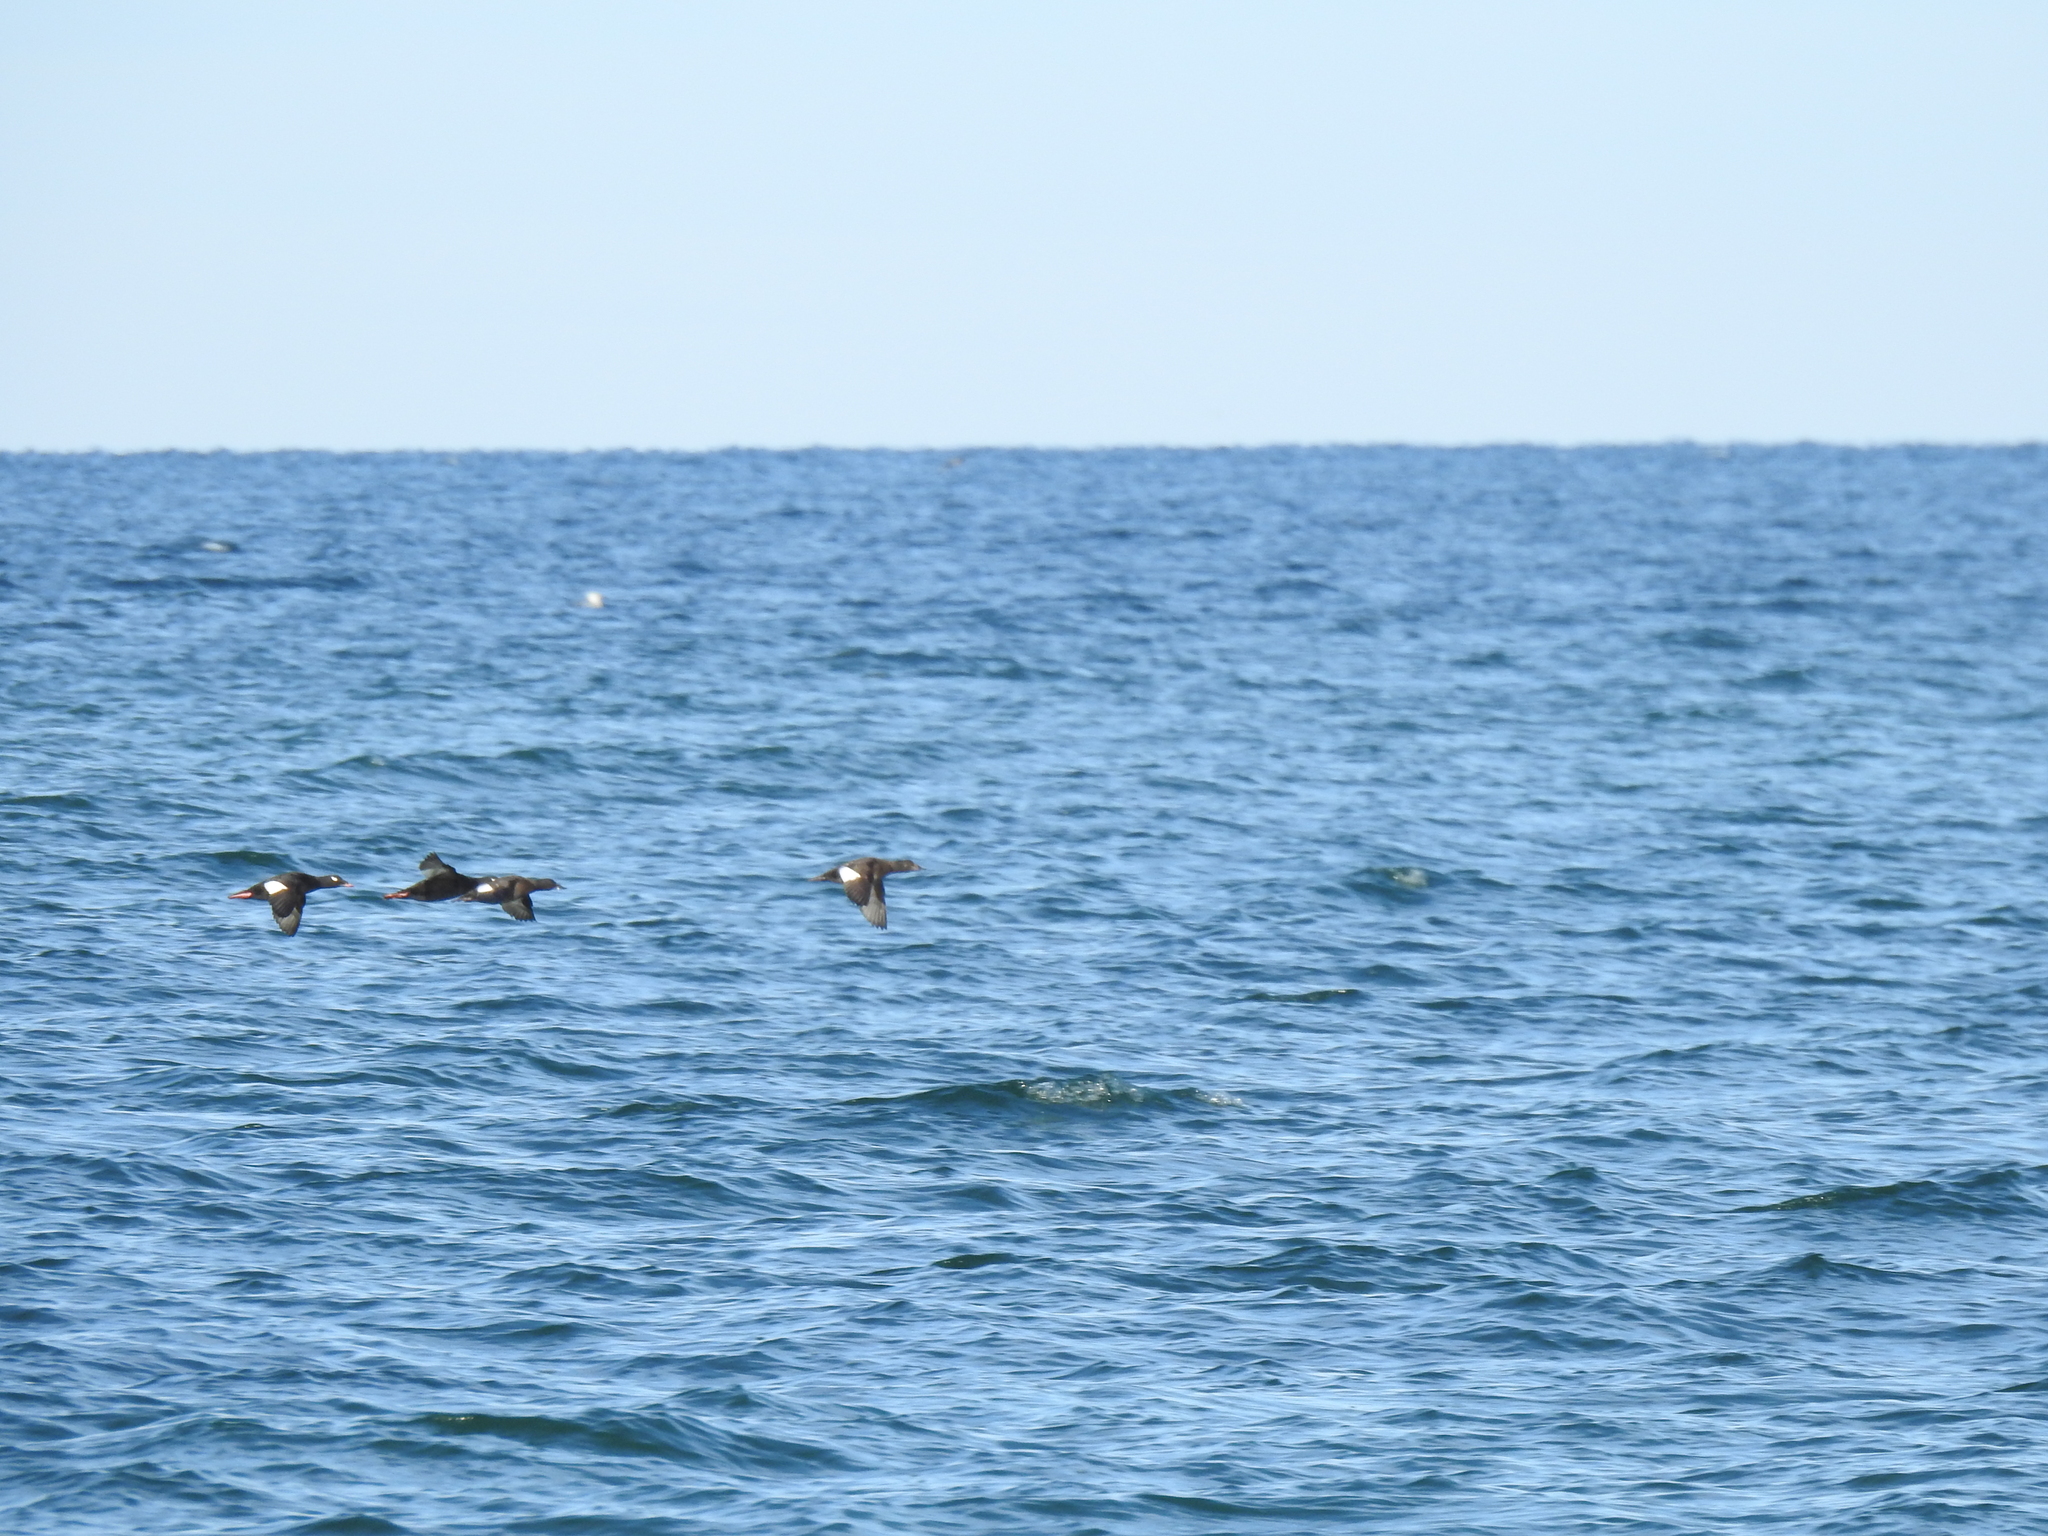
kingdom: Animalia
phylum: Chordata
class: Aves
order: Anseriformes
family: Anatidae
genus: Melanitta
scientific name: Melanitta deglandi
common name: White-winged scoter
